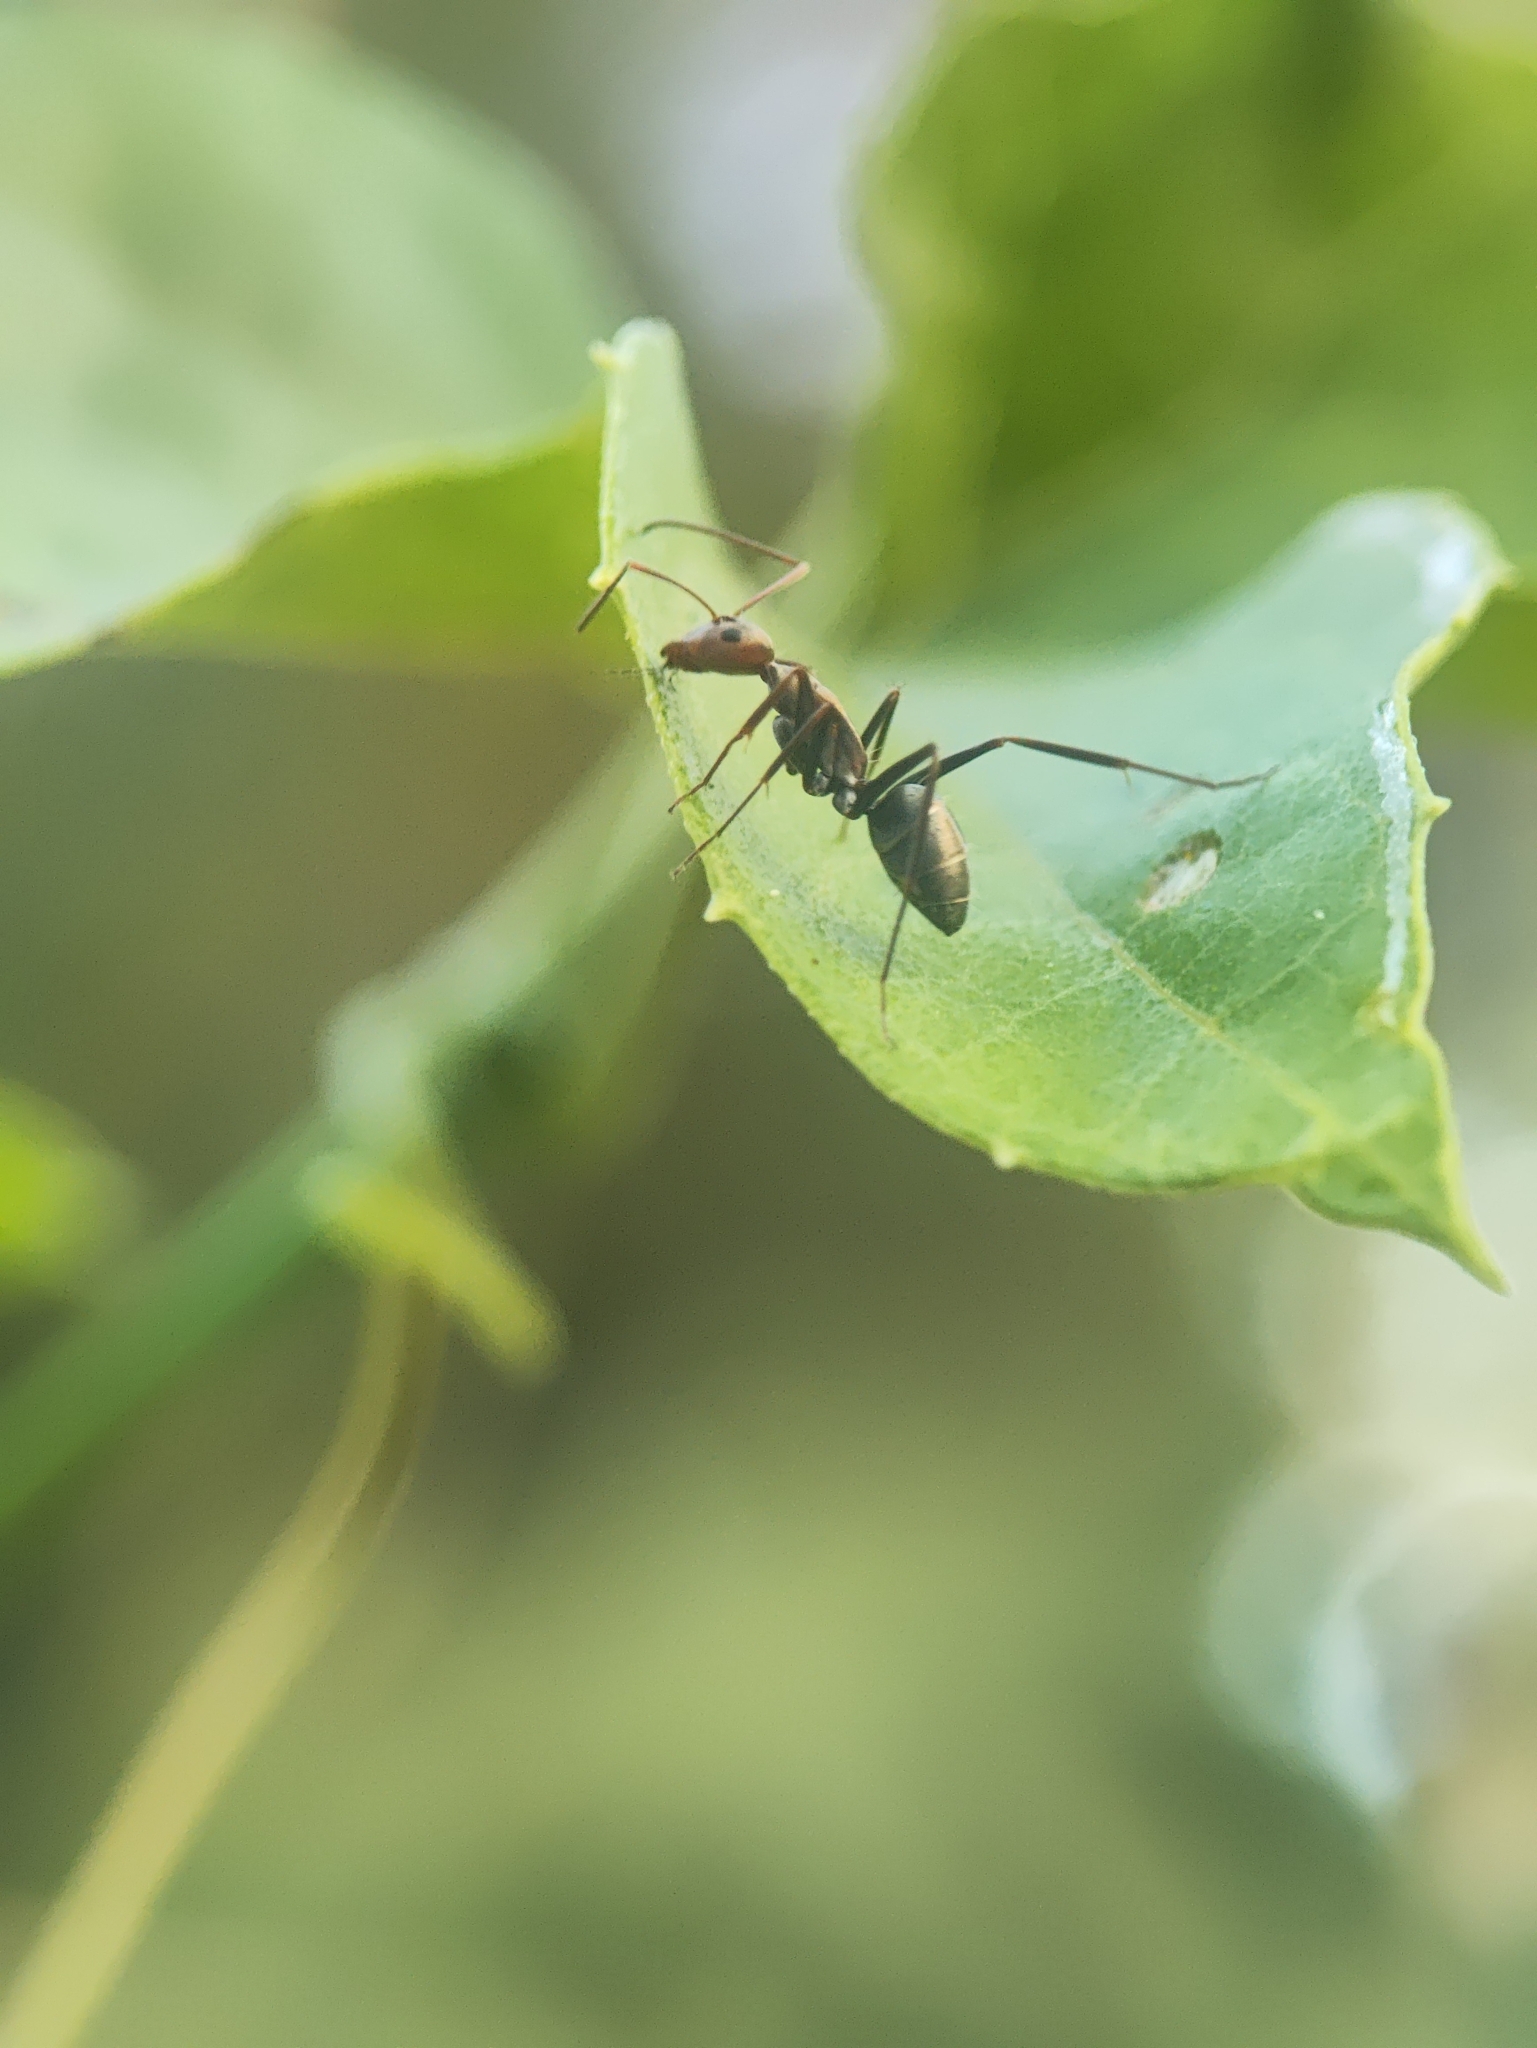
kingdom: Animalia
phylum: Arthropoda
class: Insecta
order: Hymenoptera
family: Formicidae
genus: Camponotus
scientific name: Camponotus rufoglaucus
